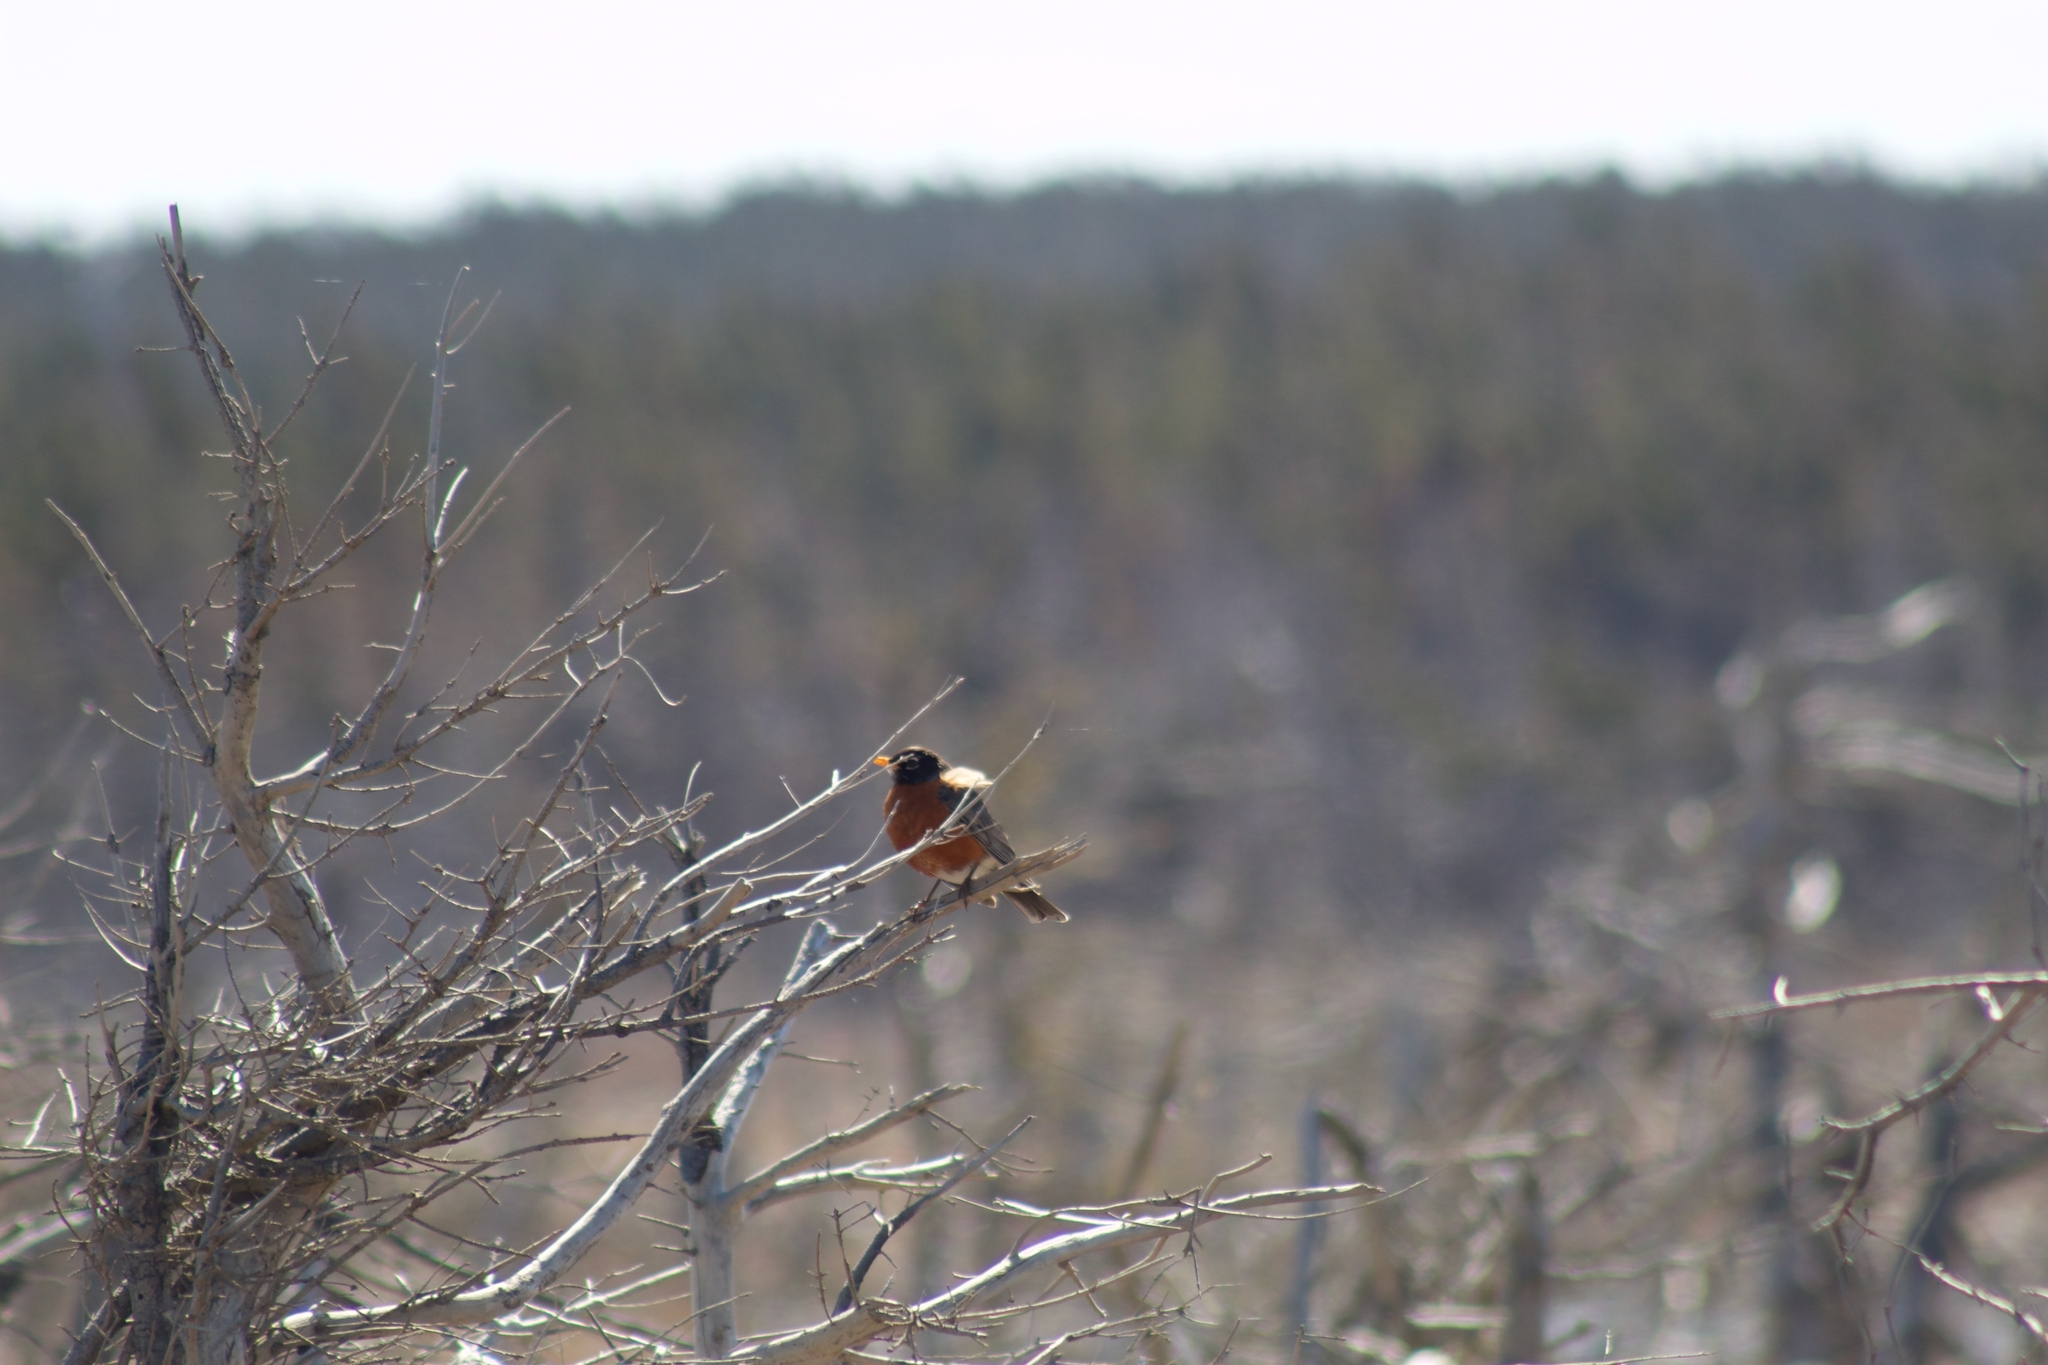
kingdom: Animalia
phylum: Chordata
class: Aves
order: Passeriformes
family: Turdidae
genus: Turdus
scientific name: Turdus migratorius
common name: American robin
